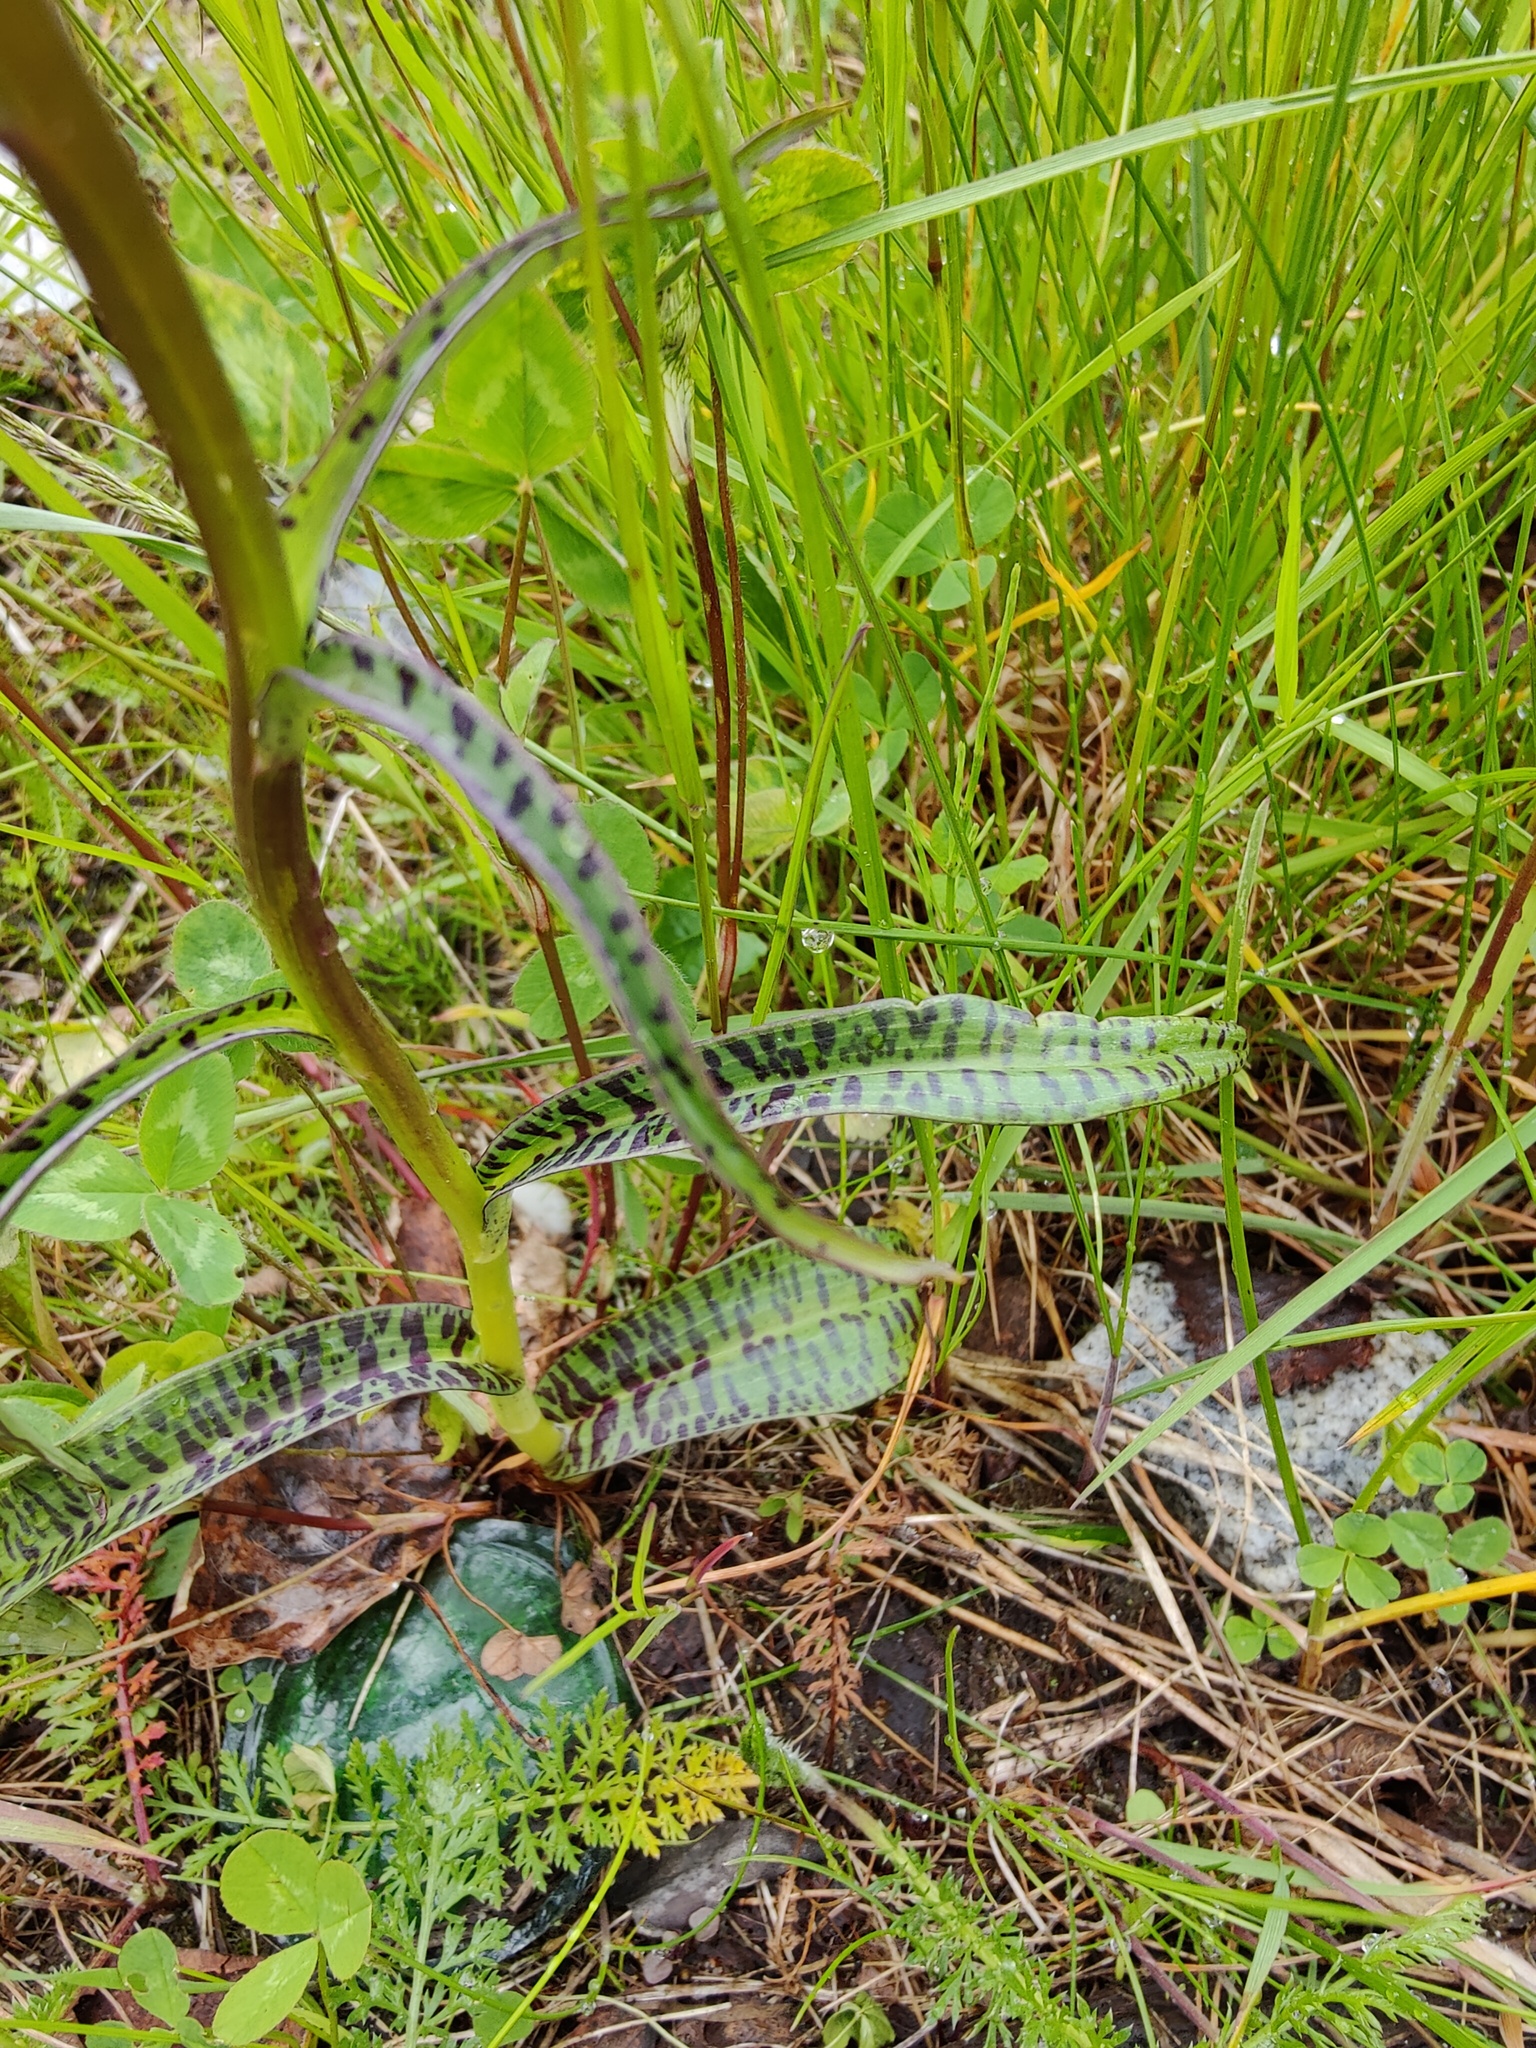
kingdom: Plantae
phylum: Tracheophyta
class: Liliopsida
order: Asparagales
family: Orchidaceae
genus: Dactylorhiza
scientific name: Dactylorhiza maculata
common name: Heath spotted-orchid
